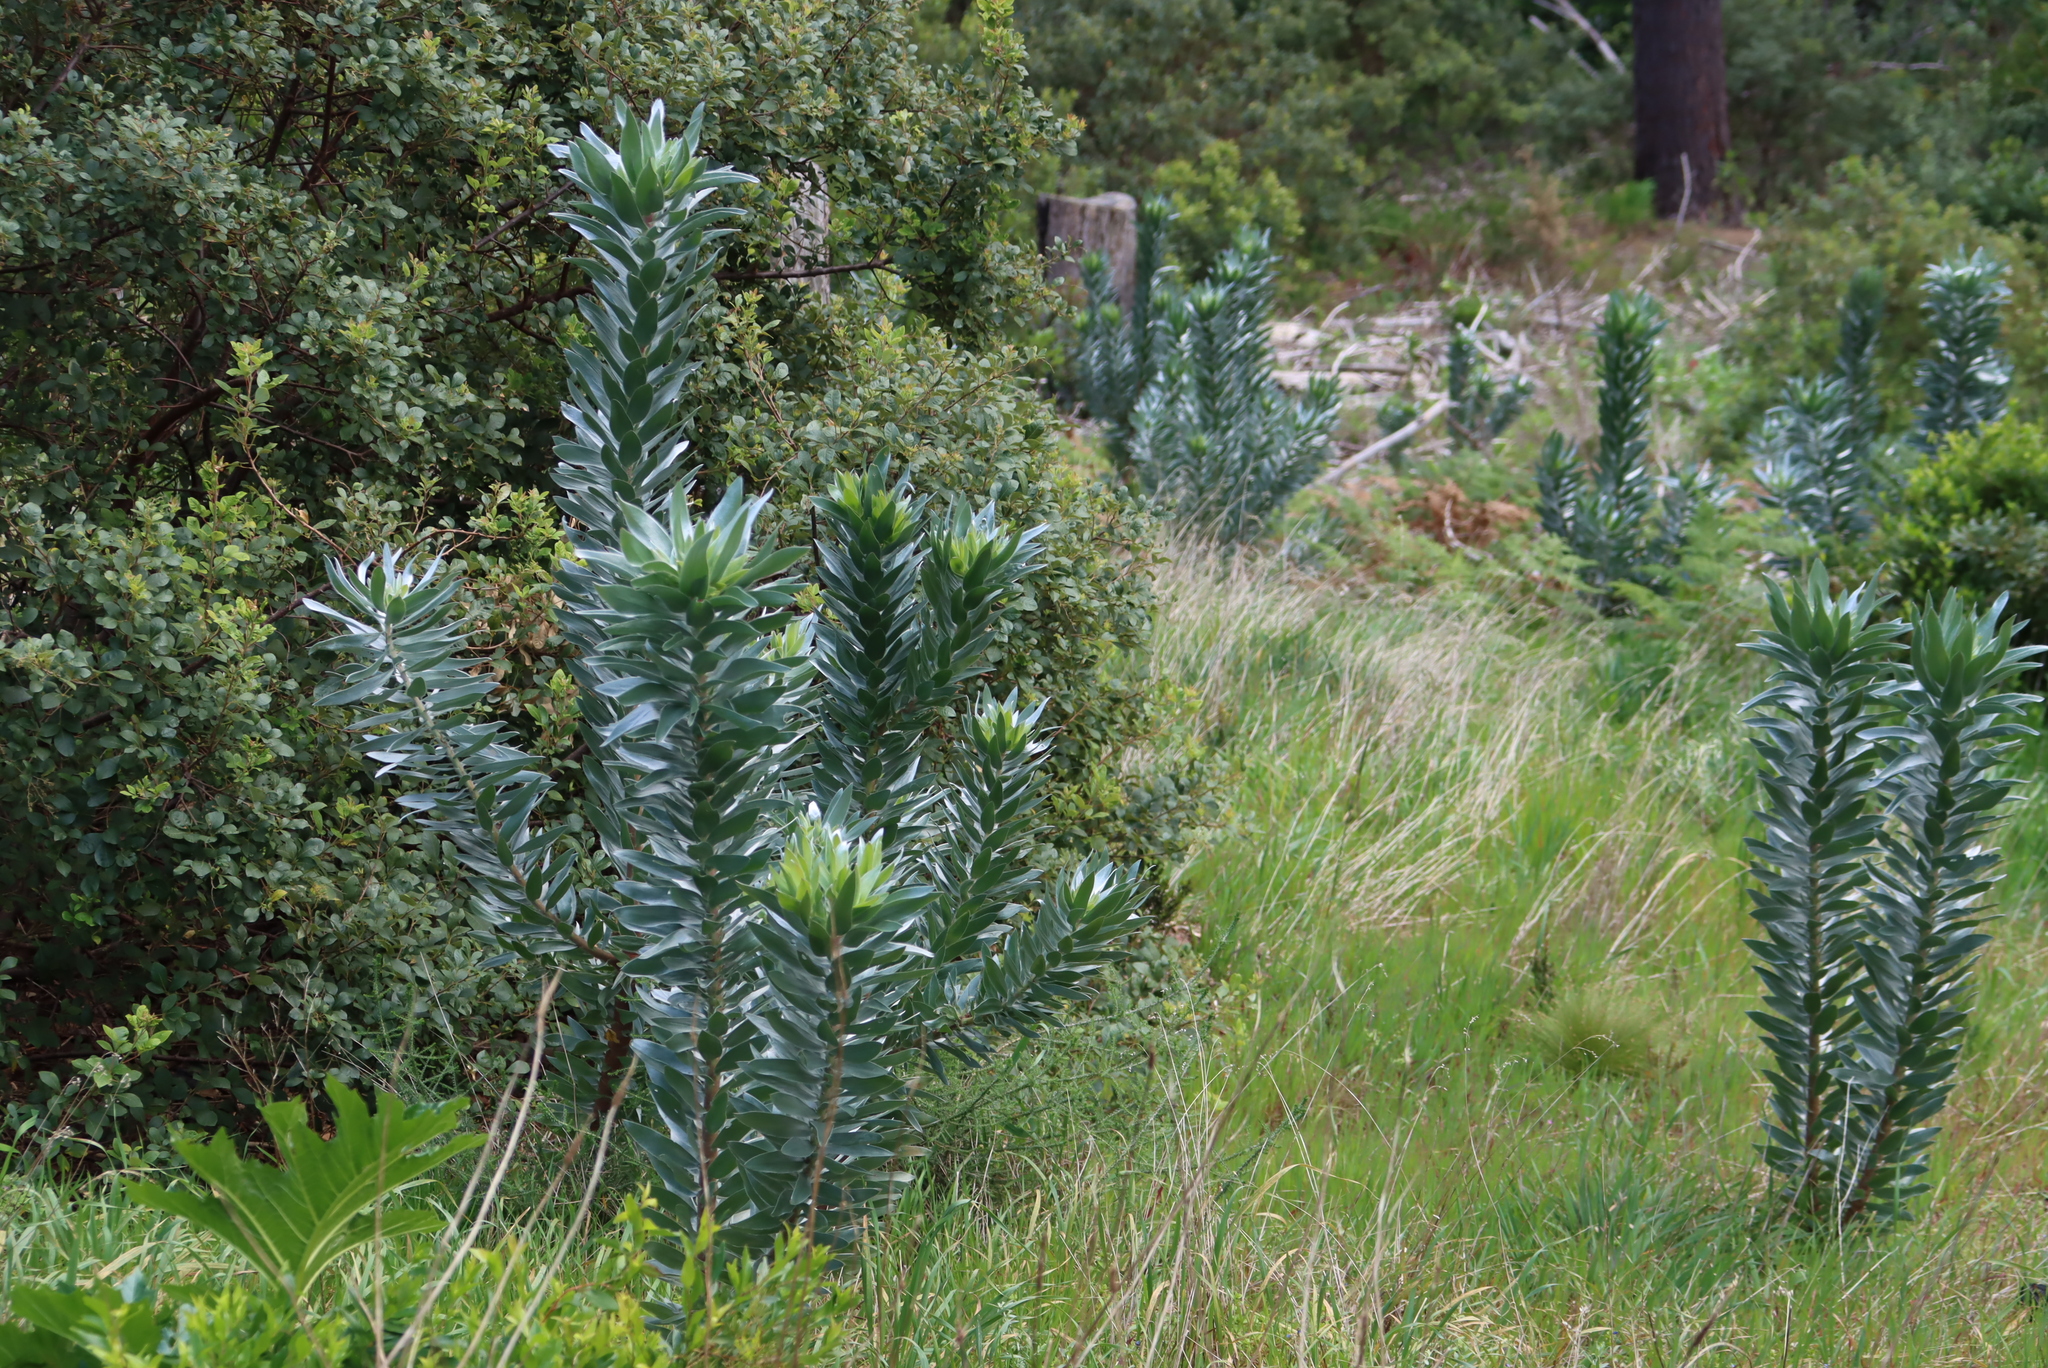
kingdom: Plantae
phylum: Tracheophyta
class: Magnoliopsida
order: Proteales
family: Proteaceae
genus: Leucadendron
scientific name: Leucadendron argenteum
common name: Cape silver tree
